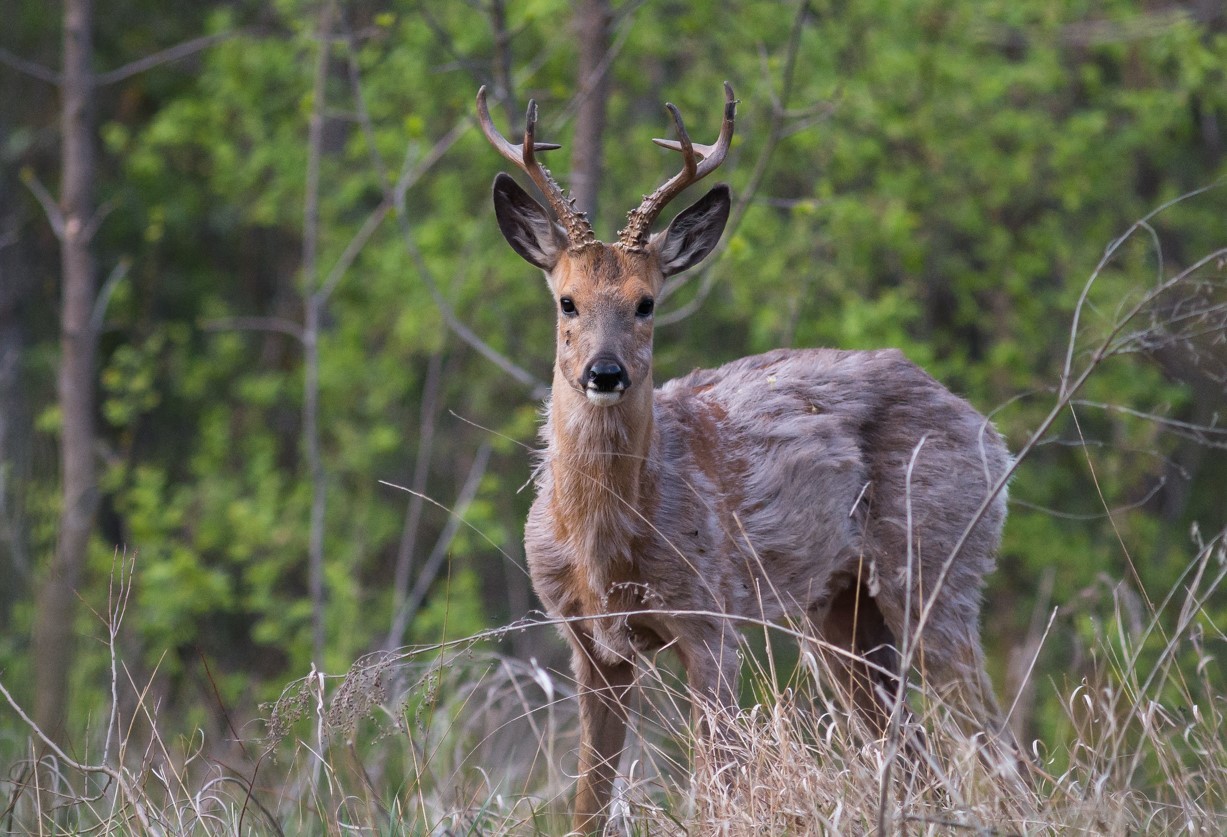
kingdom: Animalia
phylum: Chordata
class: Mammalia
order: Artiodactyla
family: Cervidae
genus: Capreolus
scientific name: Capreolus pygargus
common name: Siberian roe
